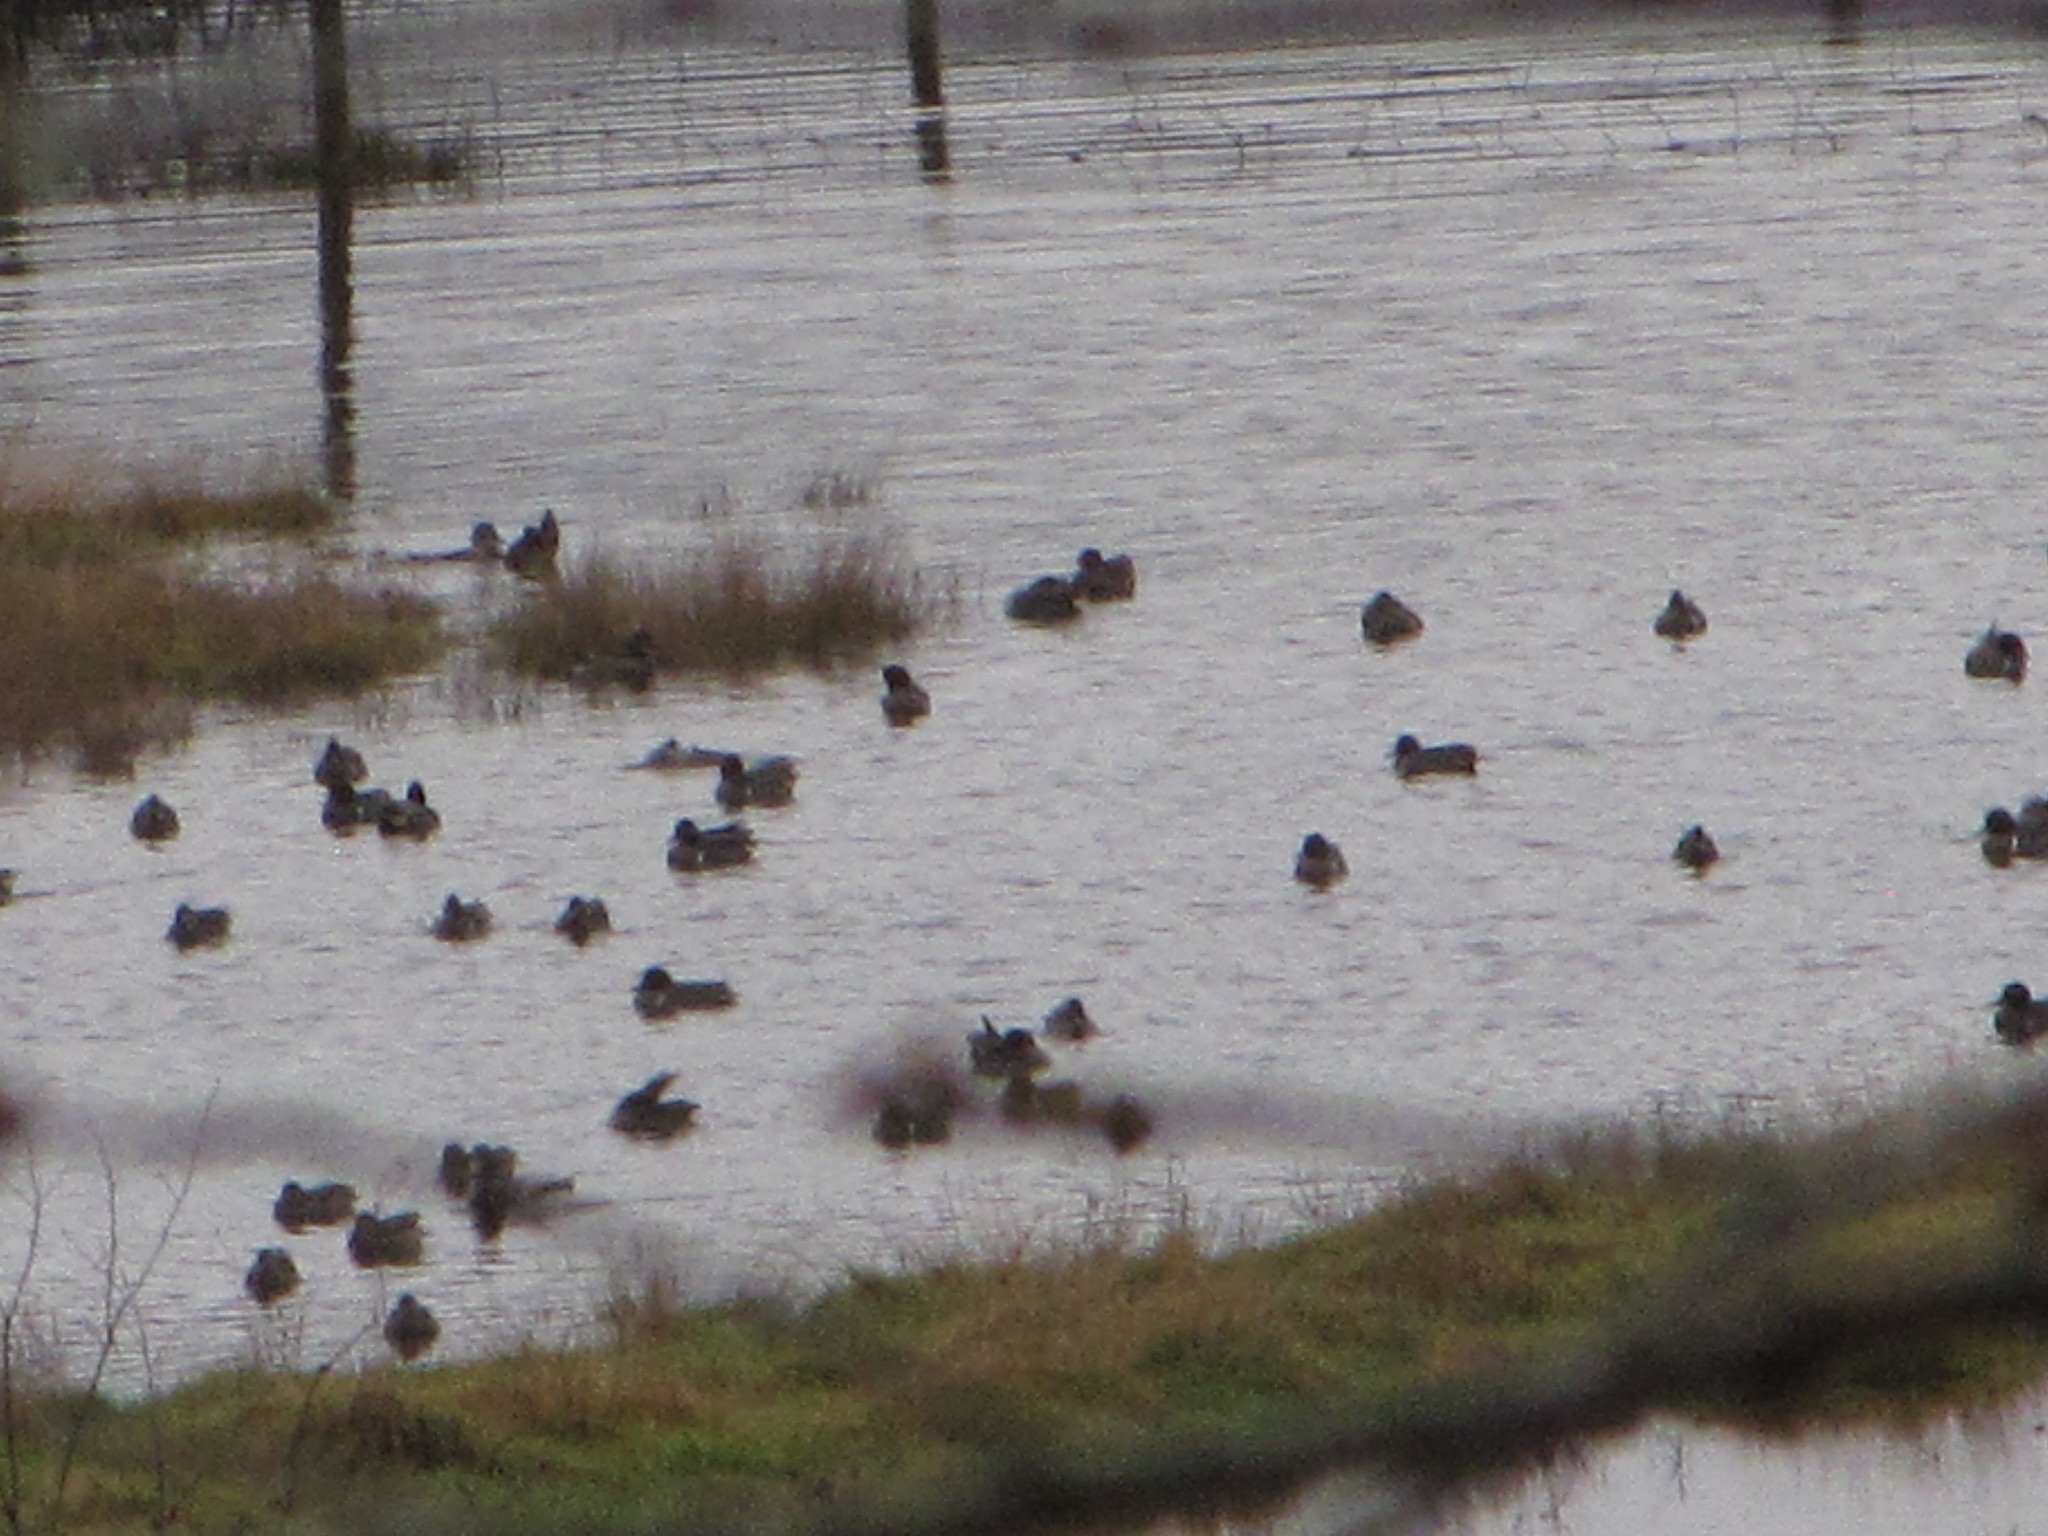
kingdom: Animalia
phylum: Chordata
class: Aves
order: Anseriformes
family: Anatidae
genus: Anas
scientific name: Anas crecca
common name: Eurasian teal
